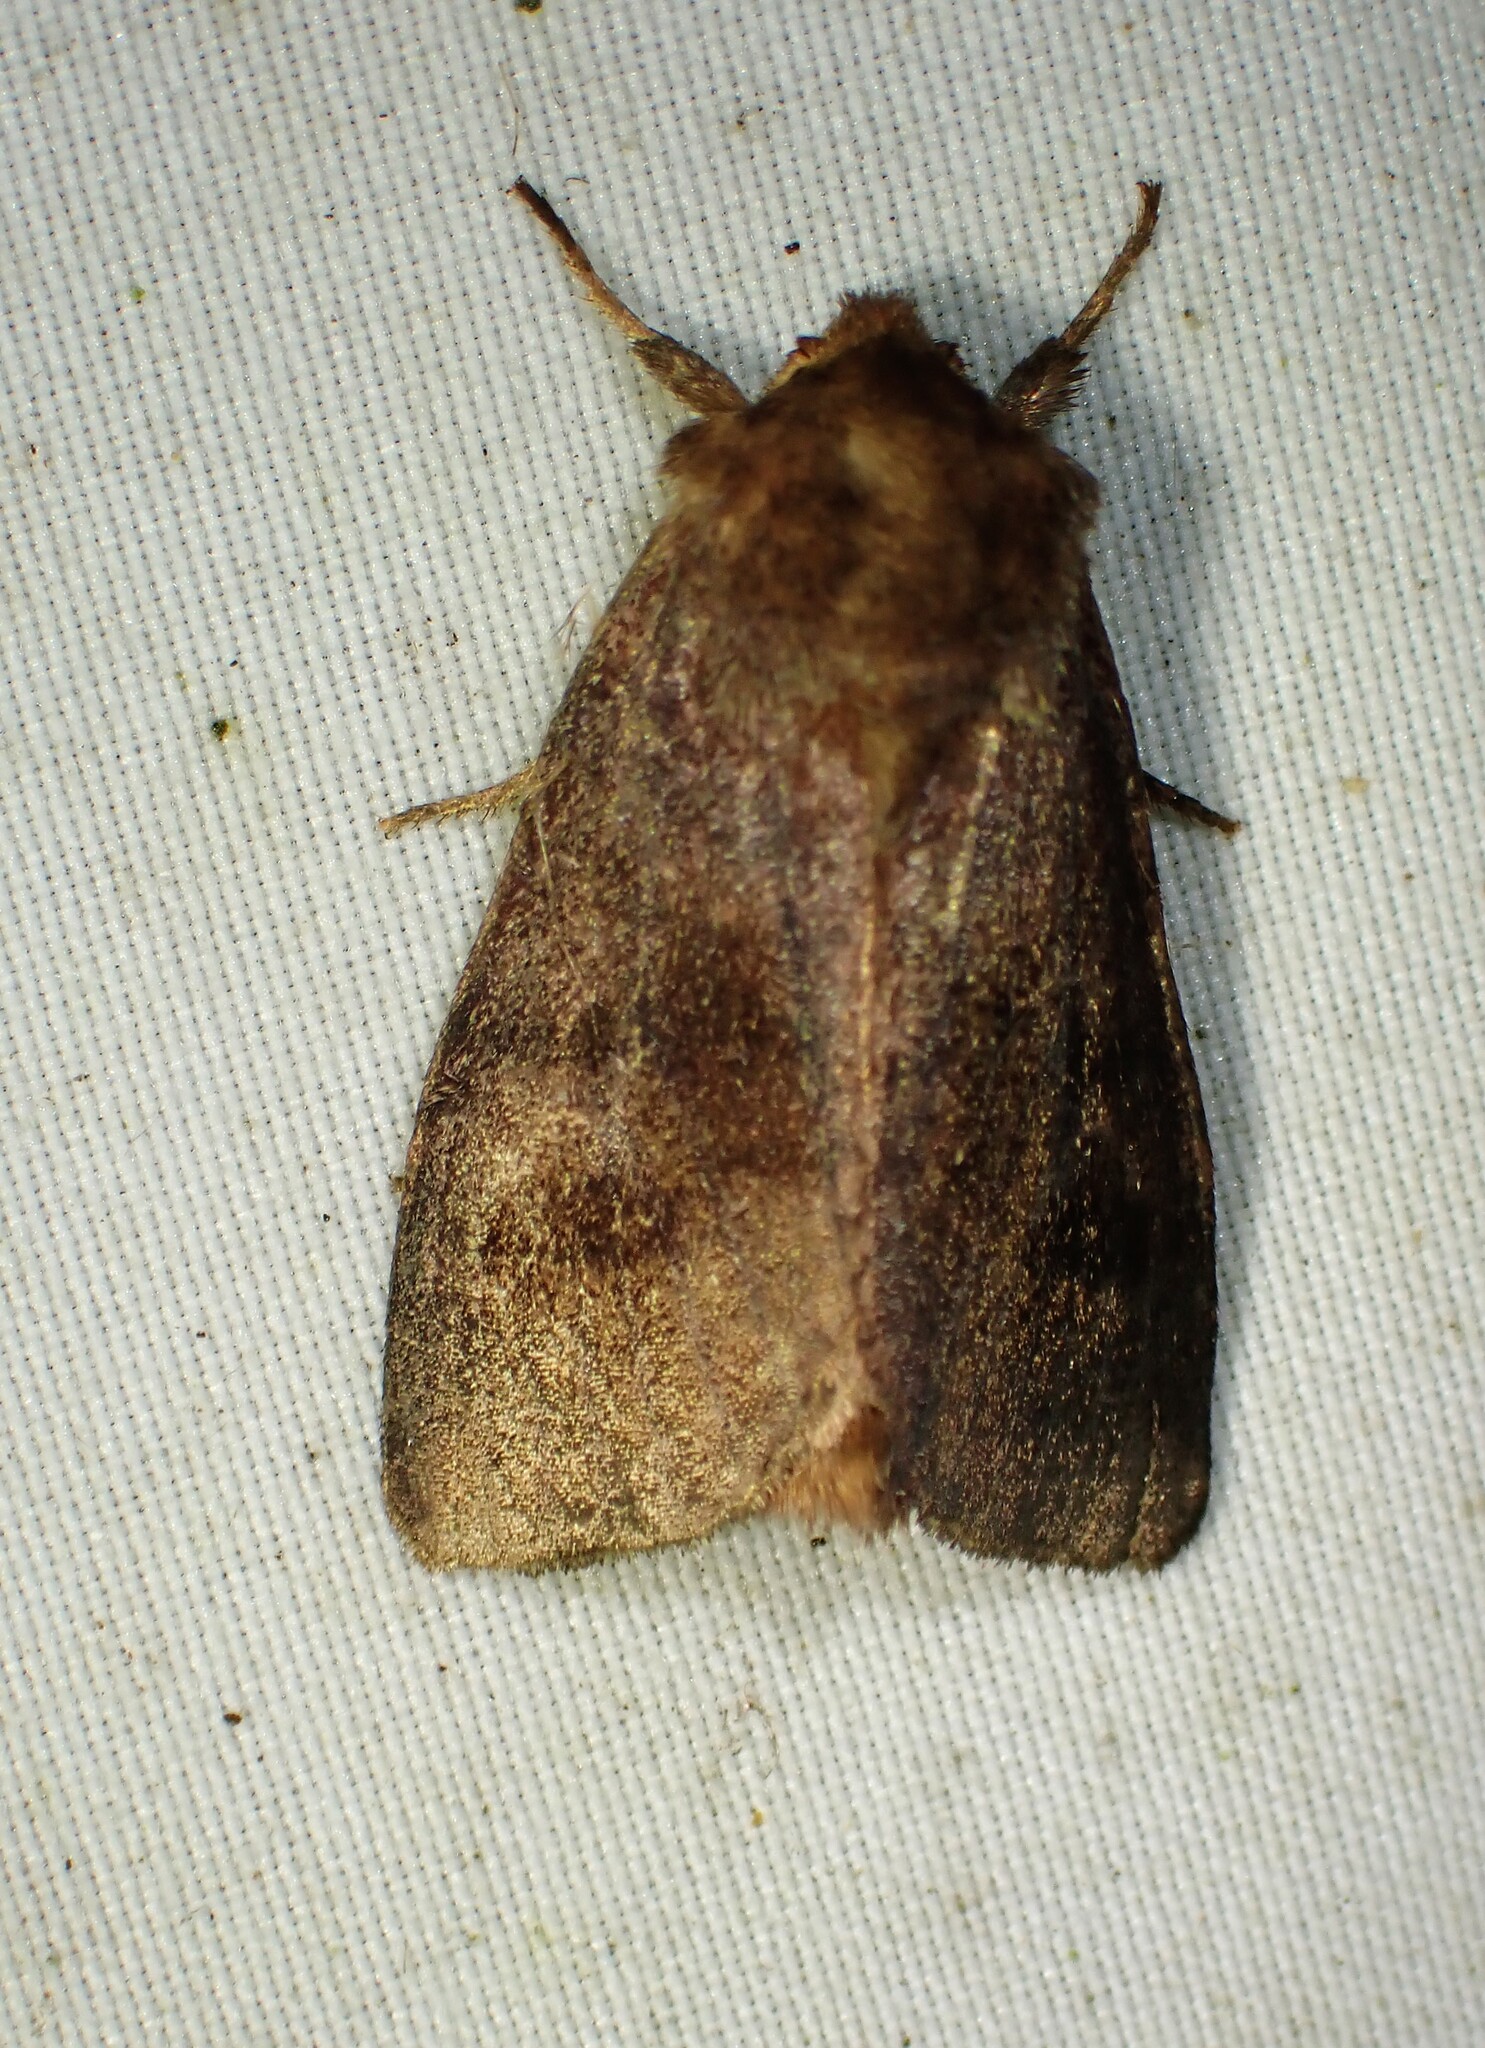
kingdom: Animalia
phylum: Arthropoda
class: Insecta
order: Lepidoptera
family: Noctuidae
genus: Nephelodes
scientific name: Nephelodes minians
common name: Bronzed cutworm
